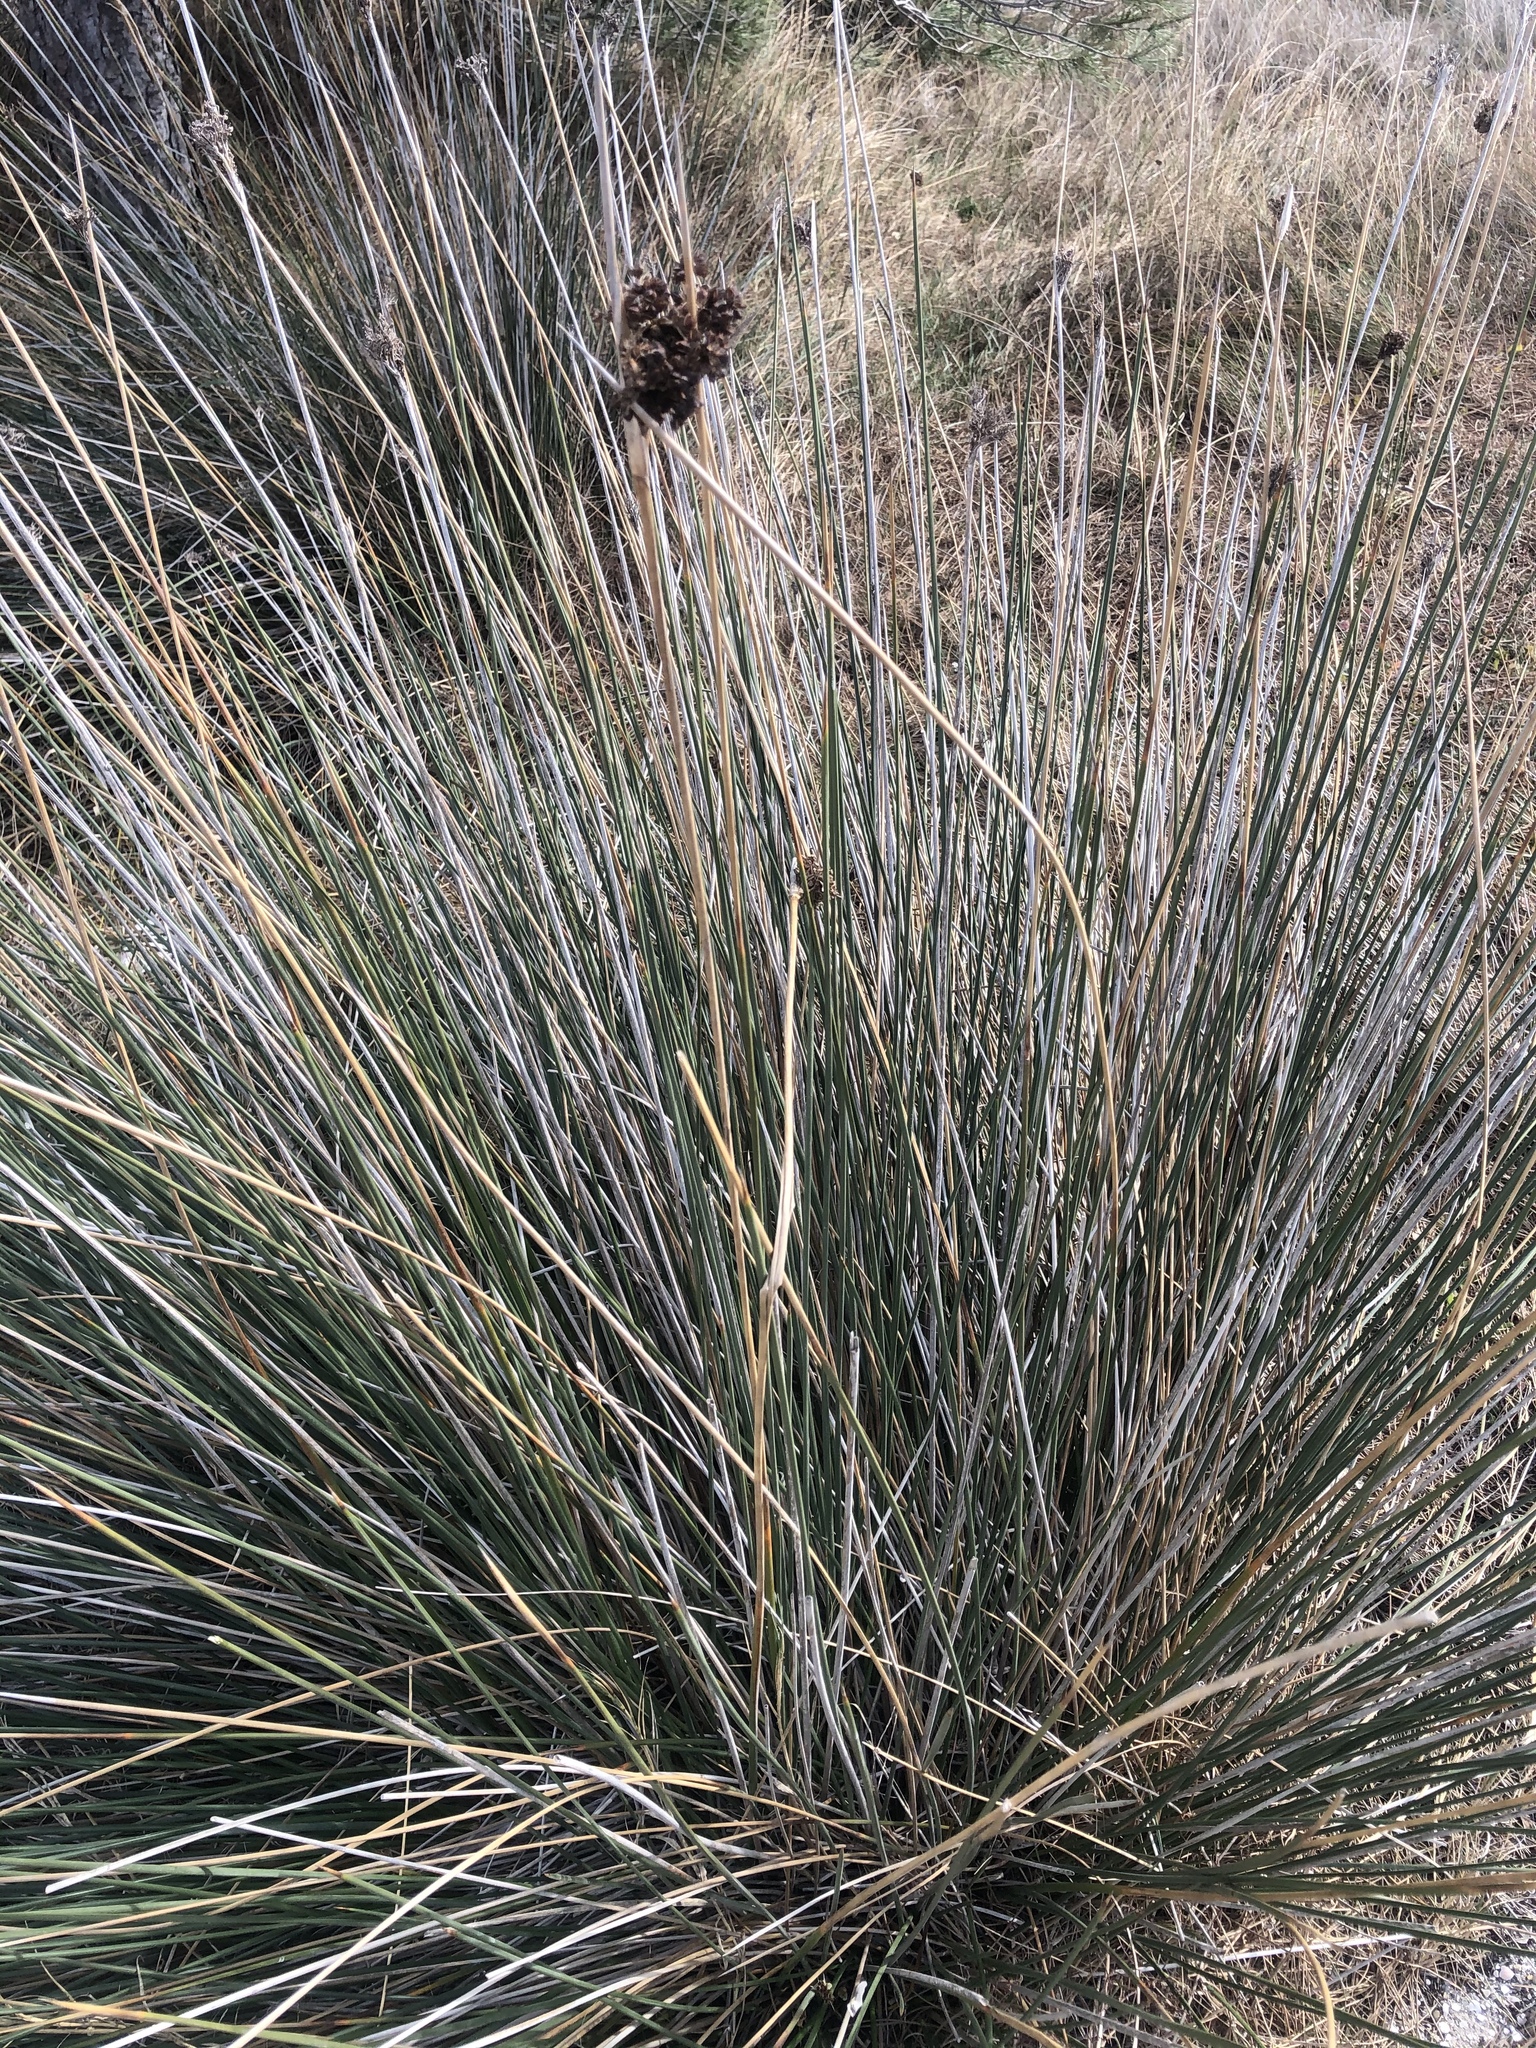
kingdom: Plantae
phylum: Tracheophyta
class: Liliopsida
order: Poales
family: Juncaceae
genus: Juncus
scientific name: Juncus acutus
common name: Sharp rush
